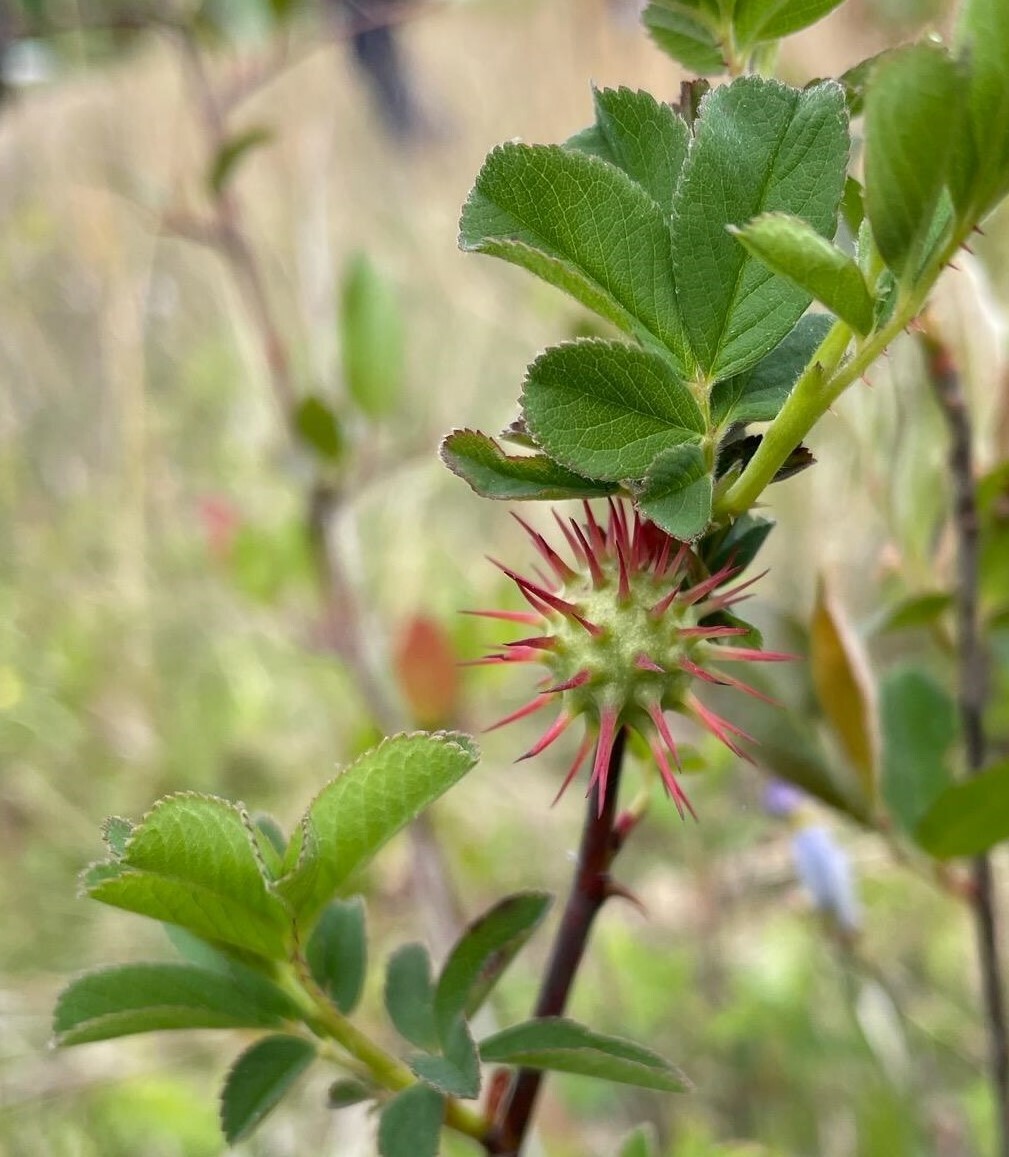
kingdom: Animalia
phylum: Arthropoda
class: Insecta
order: Hymenoptera
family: Cynipidae
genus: Diplolepis
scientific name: Diplolepis bicolor
